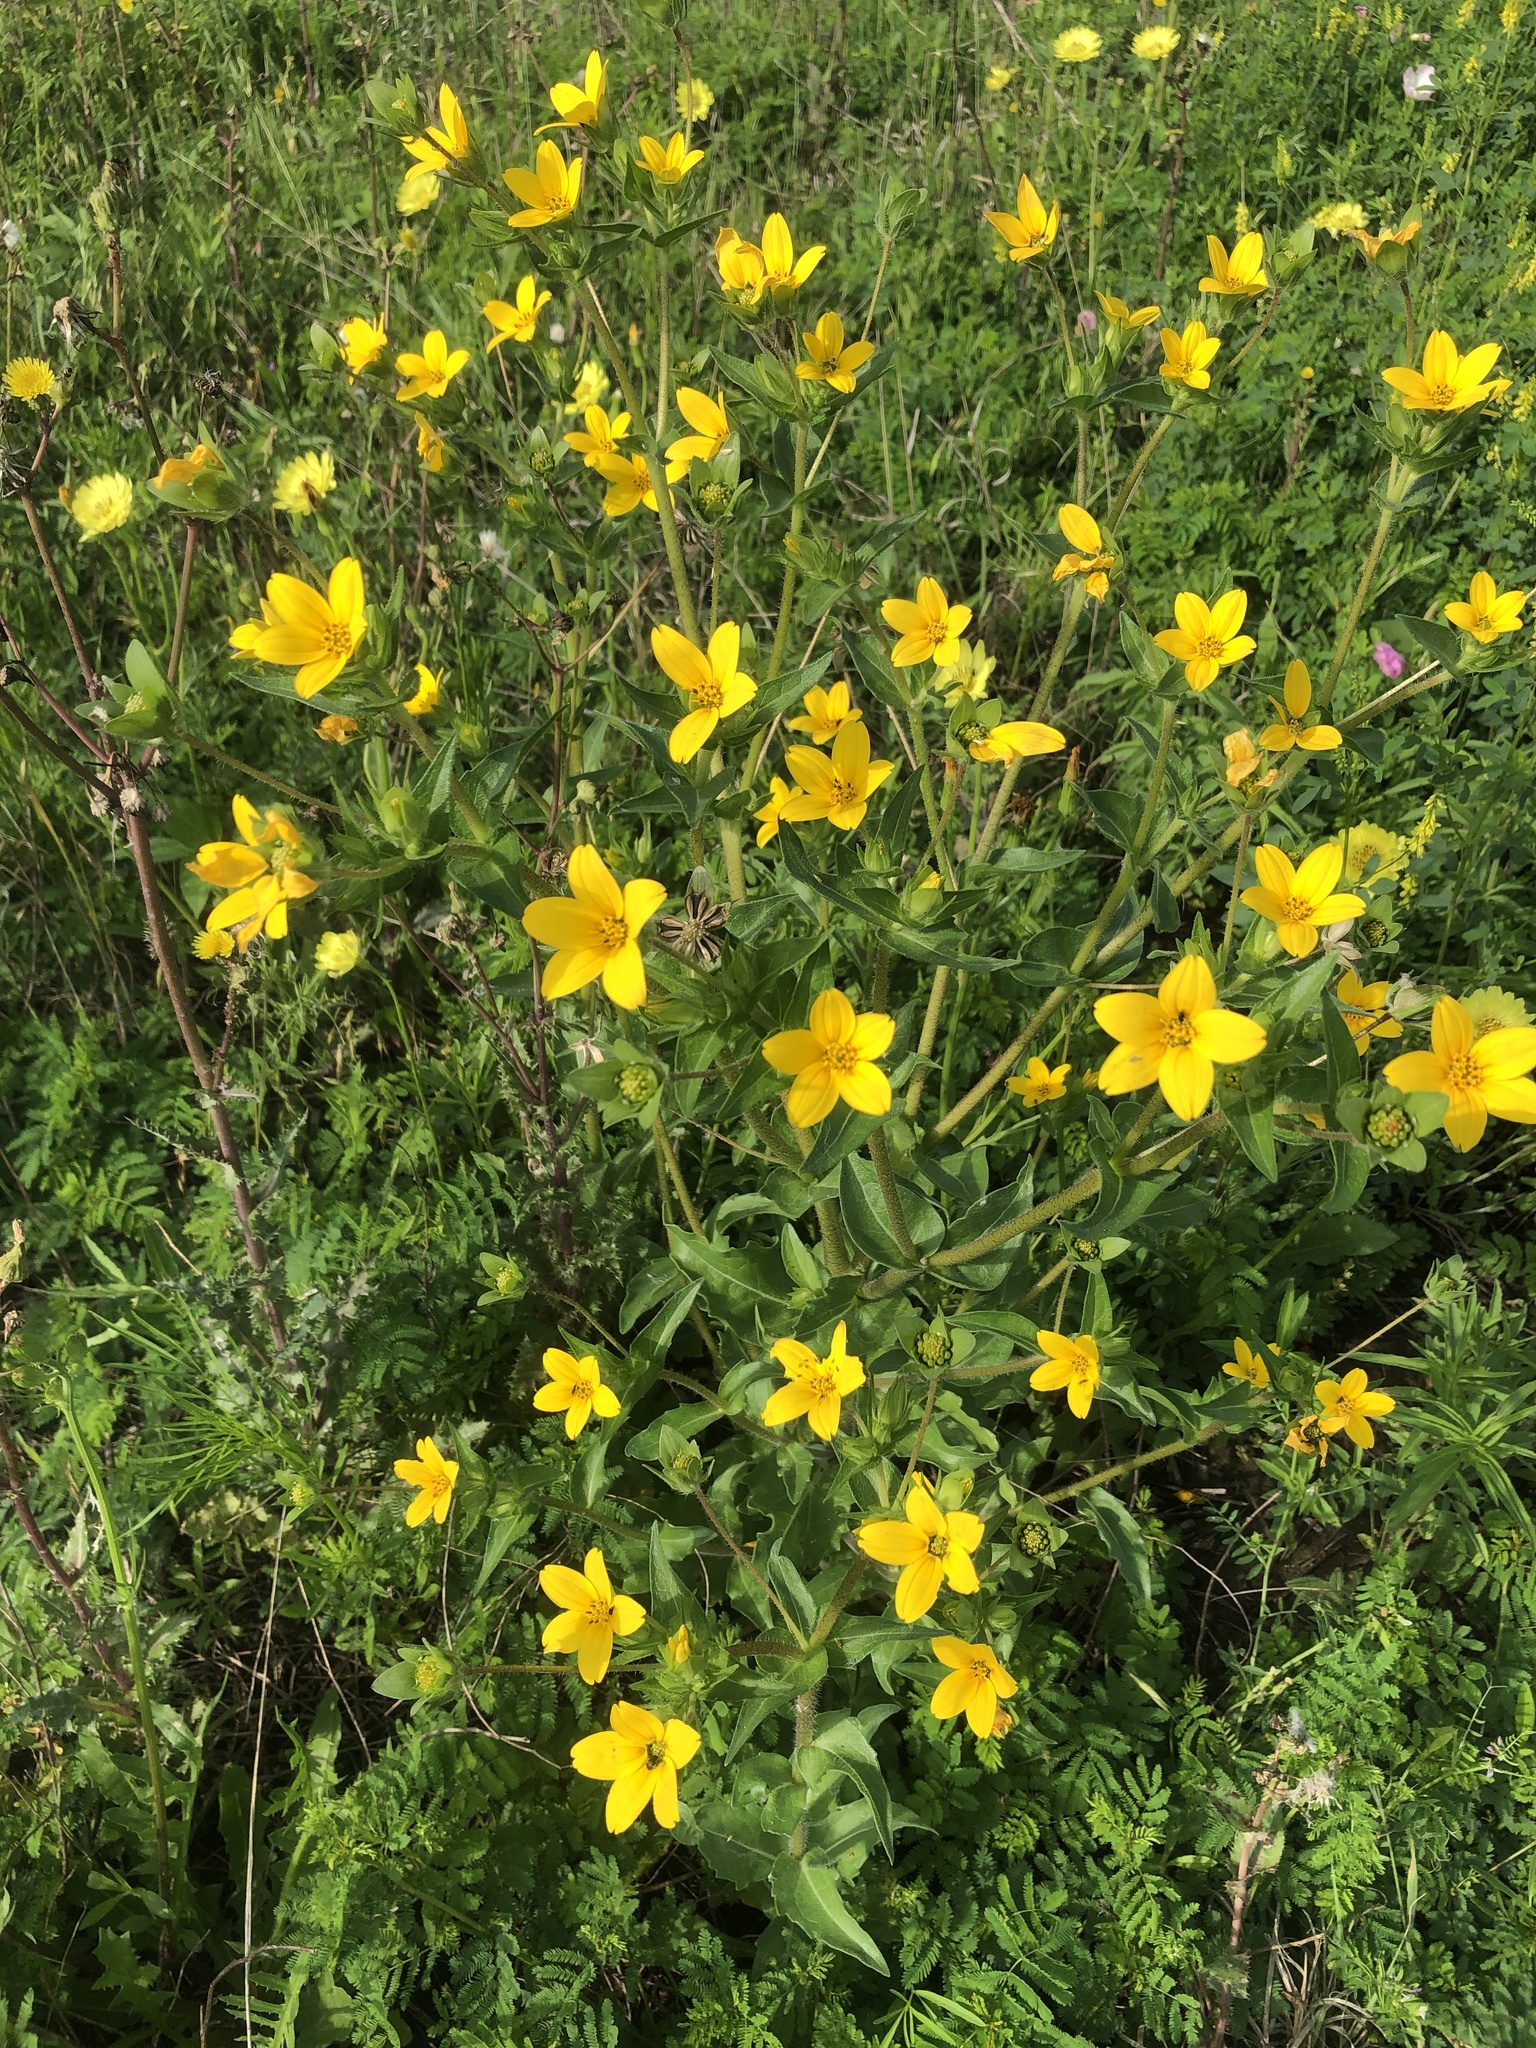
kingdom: Plantae
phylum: Tracheophyta
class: Magnoliopsida
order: Asterales
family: Asteraceae
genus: Lindheimera
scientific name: Lindheimera texana
